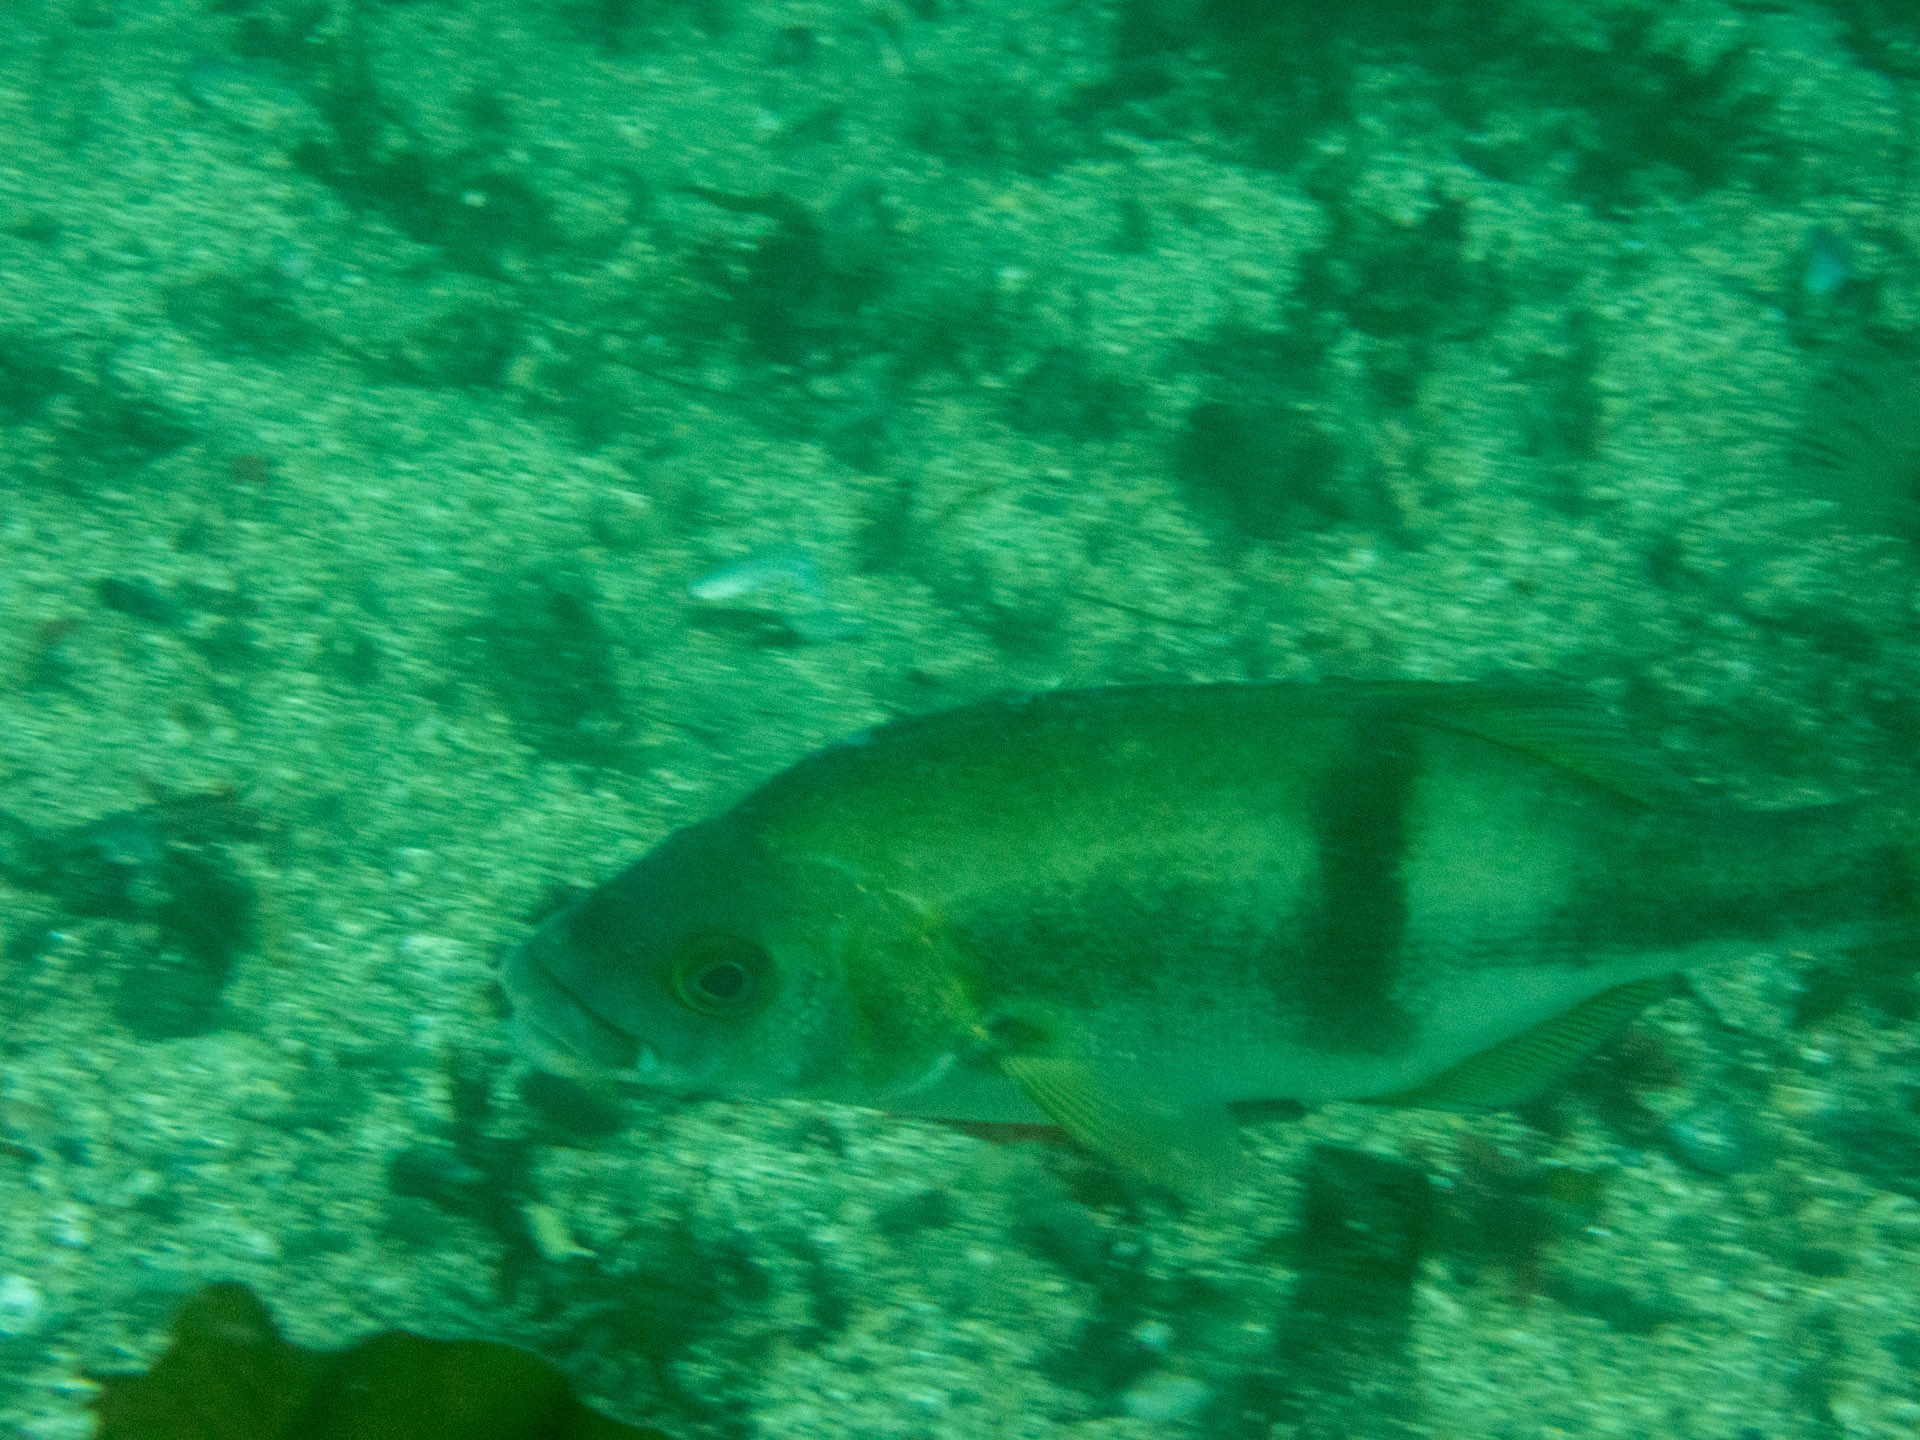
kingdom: Animalia
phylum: Chordata
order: Perciformes
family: Embiotocidae
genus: Rhacochilus
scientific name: Rhacochilus toxotes
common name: Rubberlip seaperch
